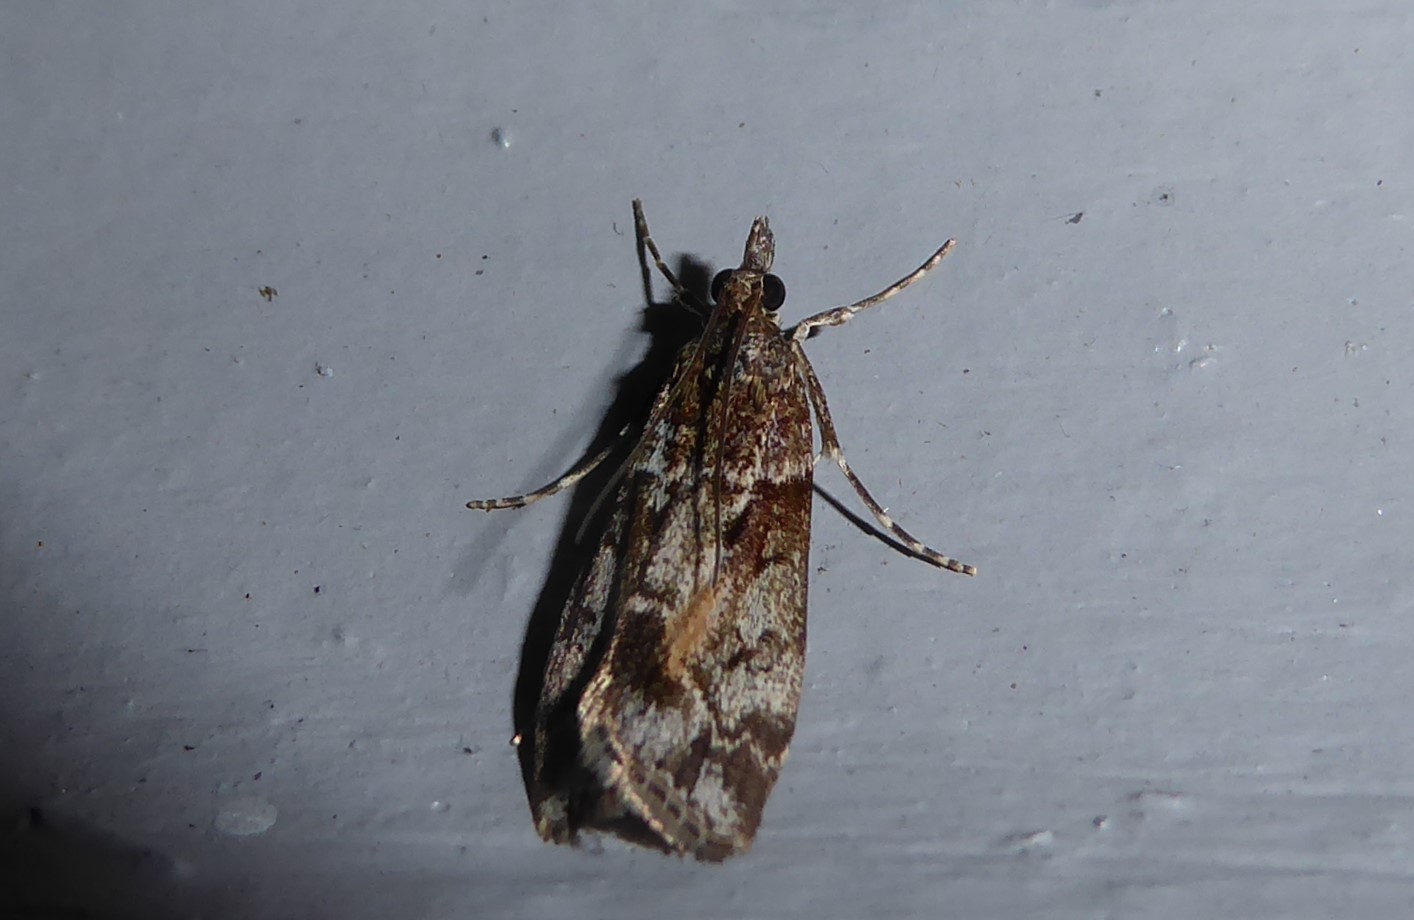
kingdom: Animalia
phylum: Arthropoda
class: Insecta
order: Lepidoptera
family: Crambidae
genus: Eudonia
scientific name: Eudonia submarginalis
